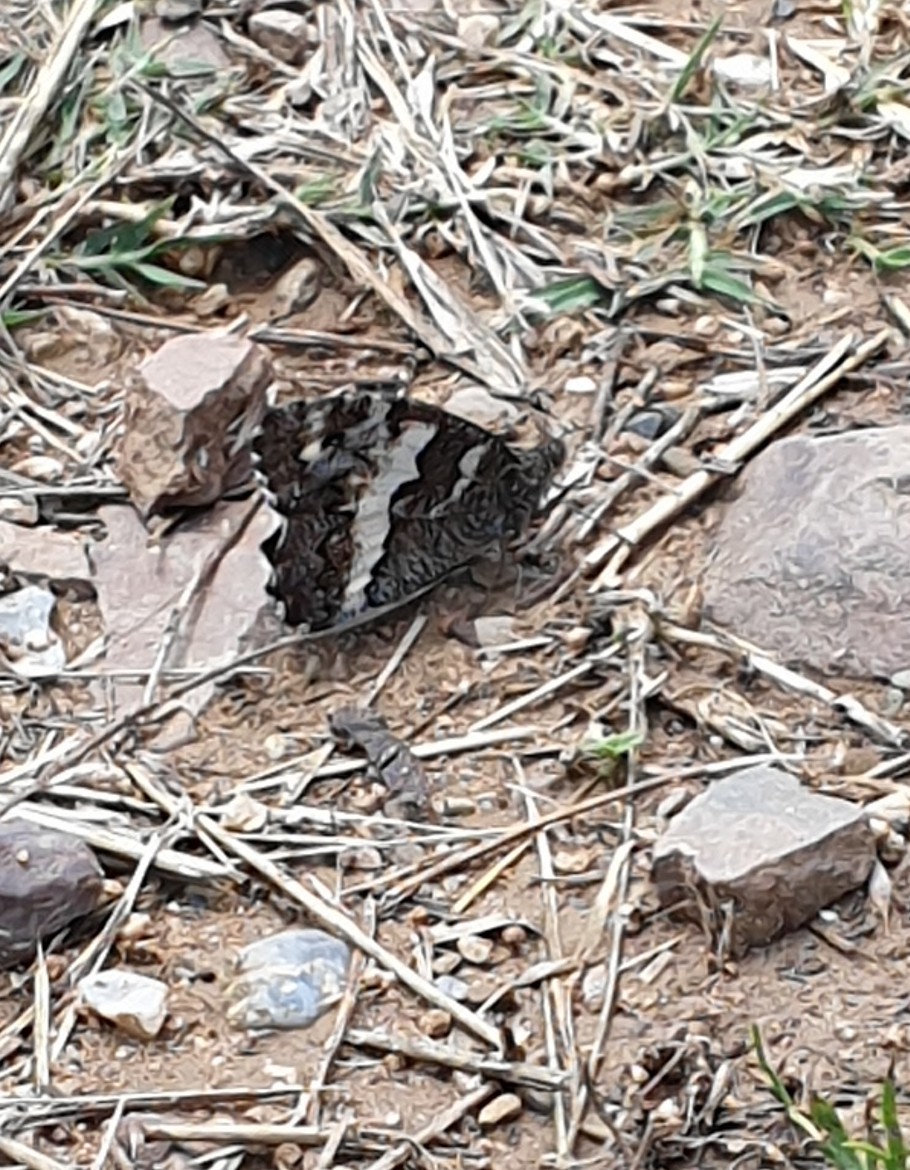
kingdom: Animalia
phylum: Arthropoda
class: Insecta
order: Lepidoptera
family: Lycaenidae
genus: Loweia
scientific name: Loweia tityrus
